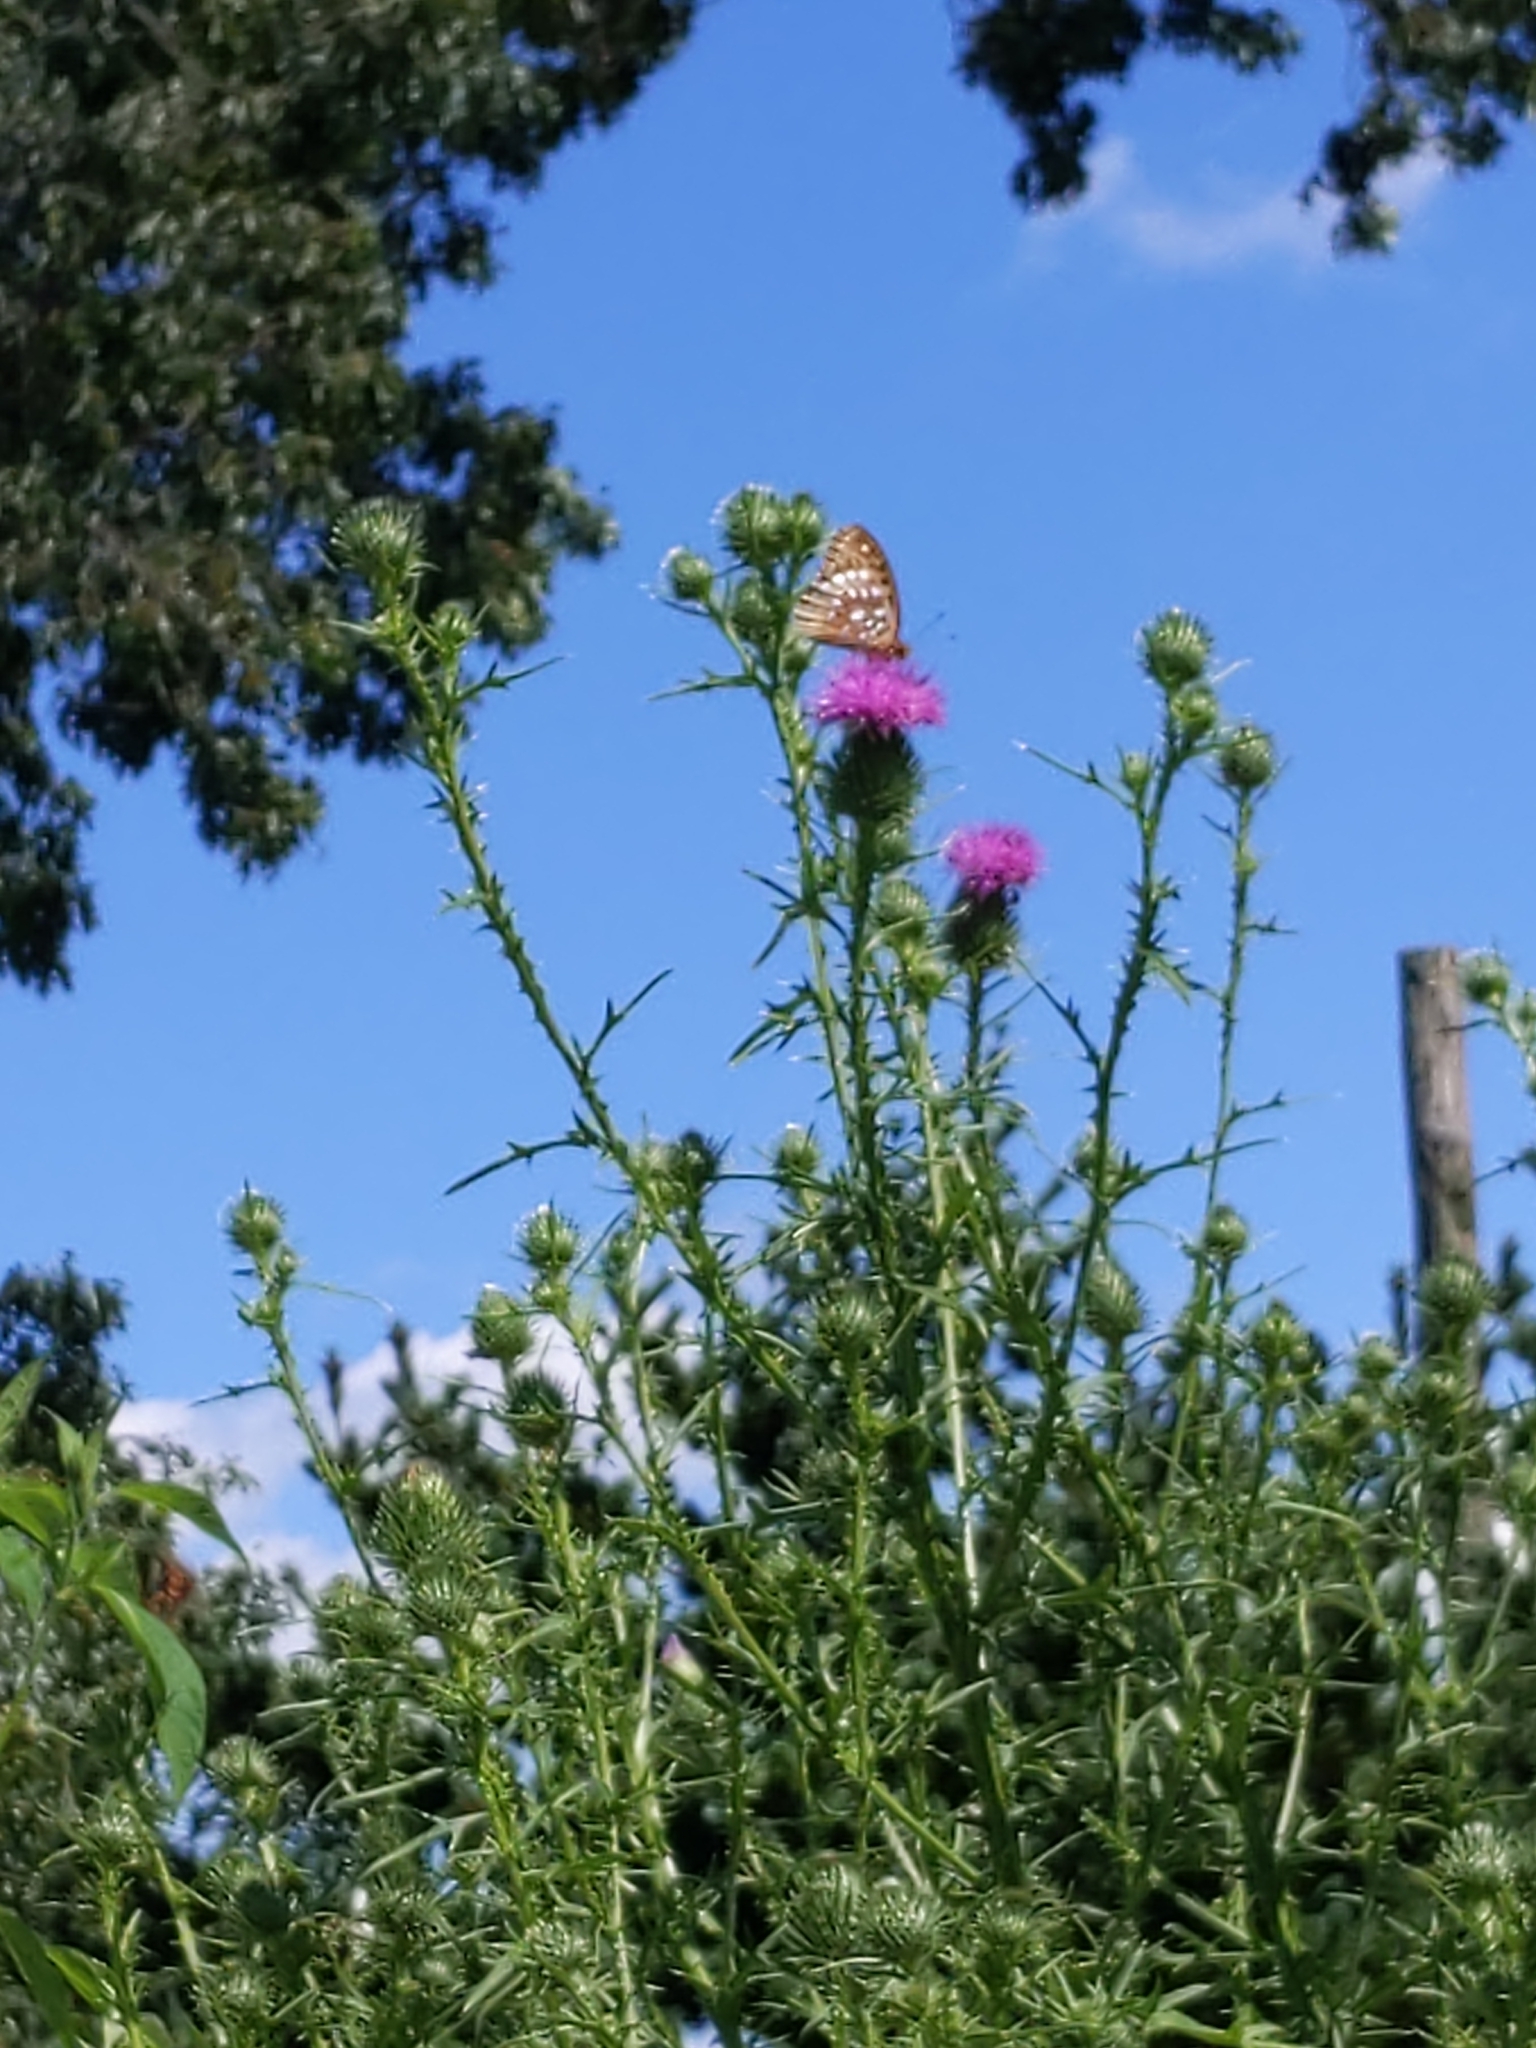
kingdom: Plantae
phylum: Tracheophyta
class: Magnoliopsida
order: Asterales
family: Asteraceae
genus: Cirsium
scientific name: Cirsium vulgare
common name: Bull thistle
